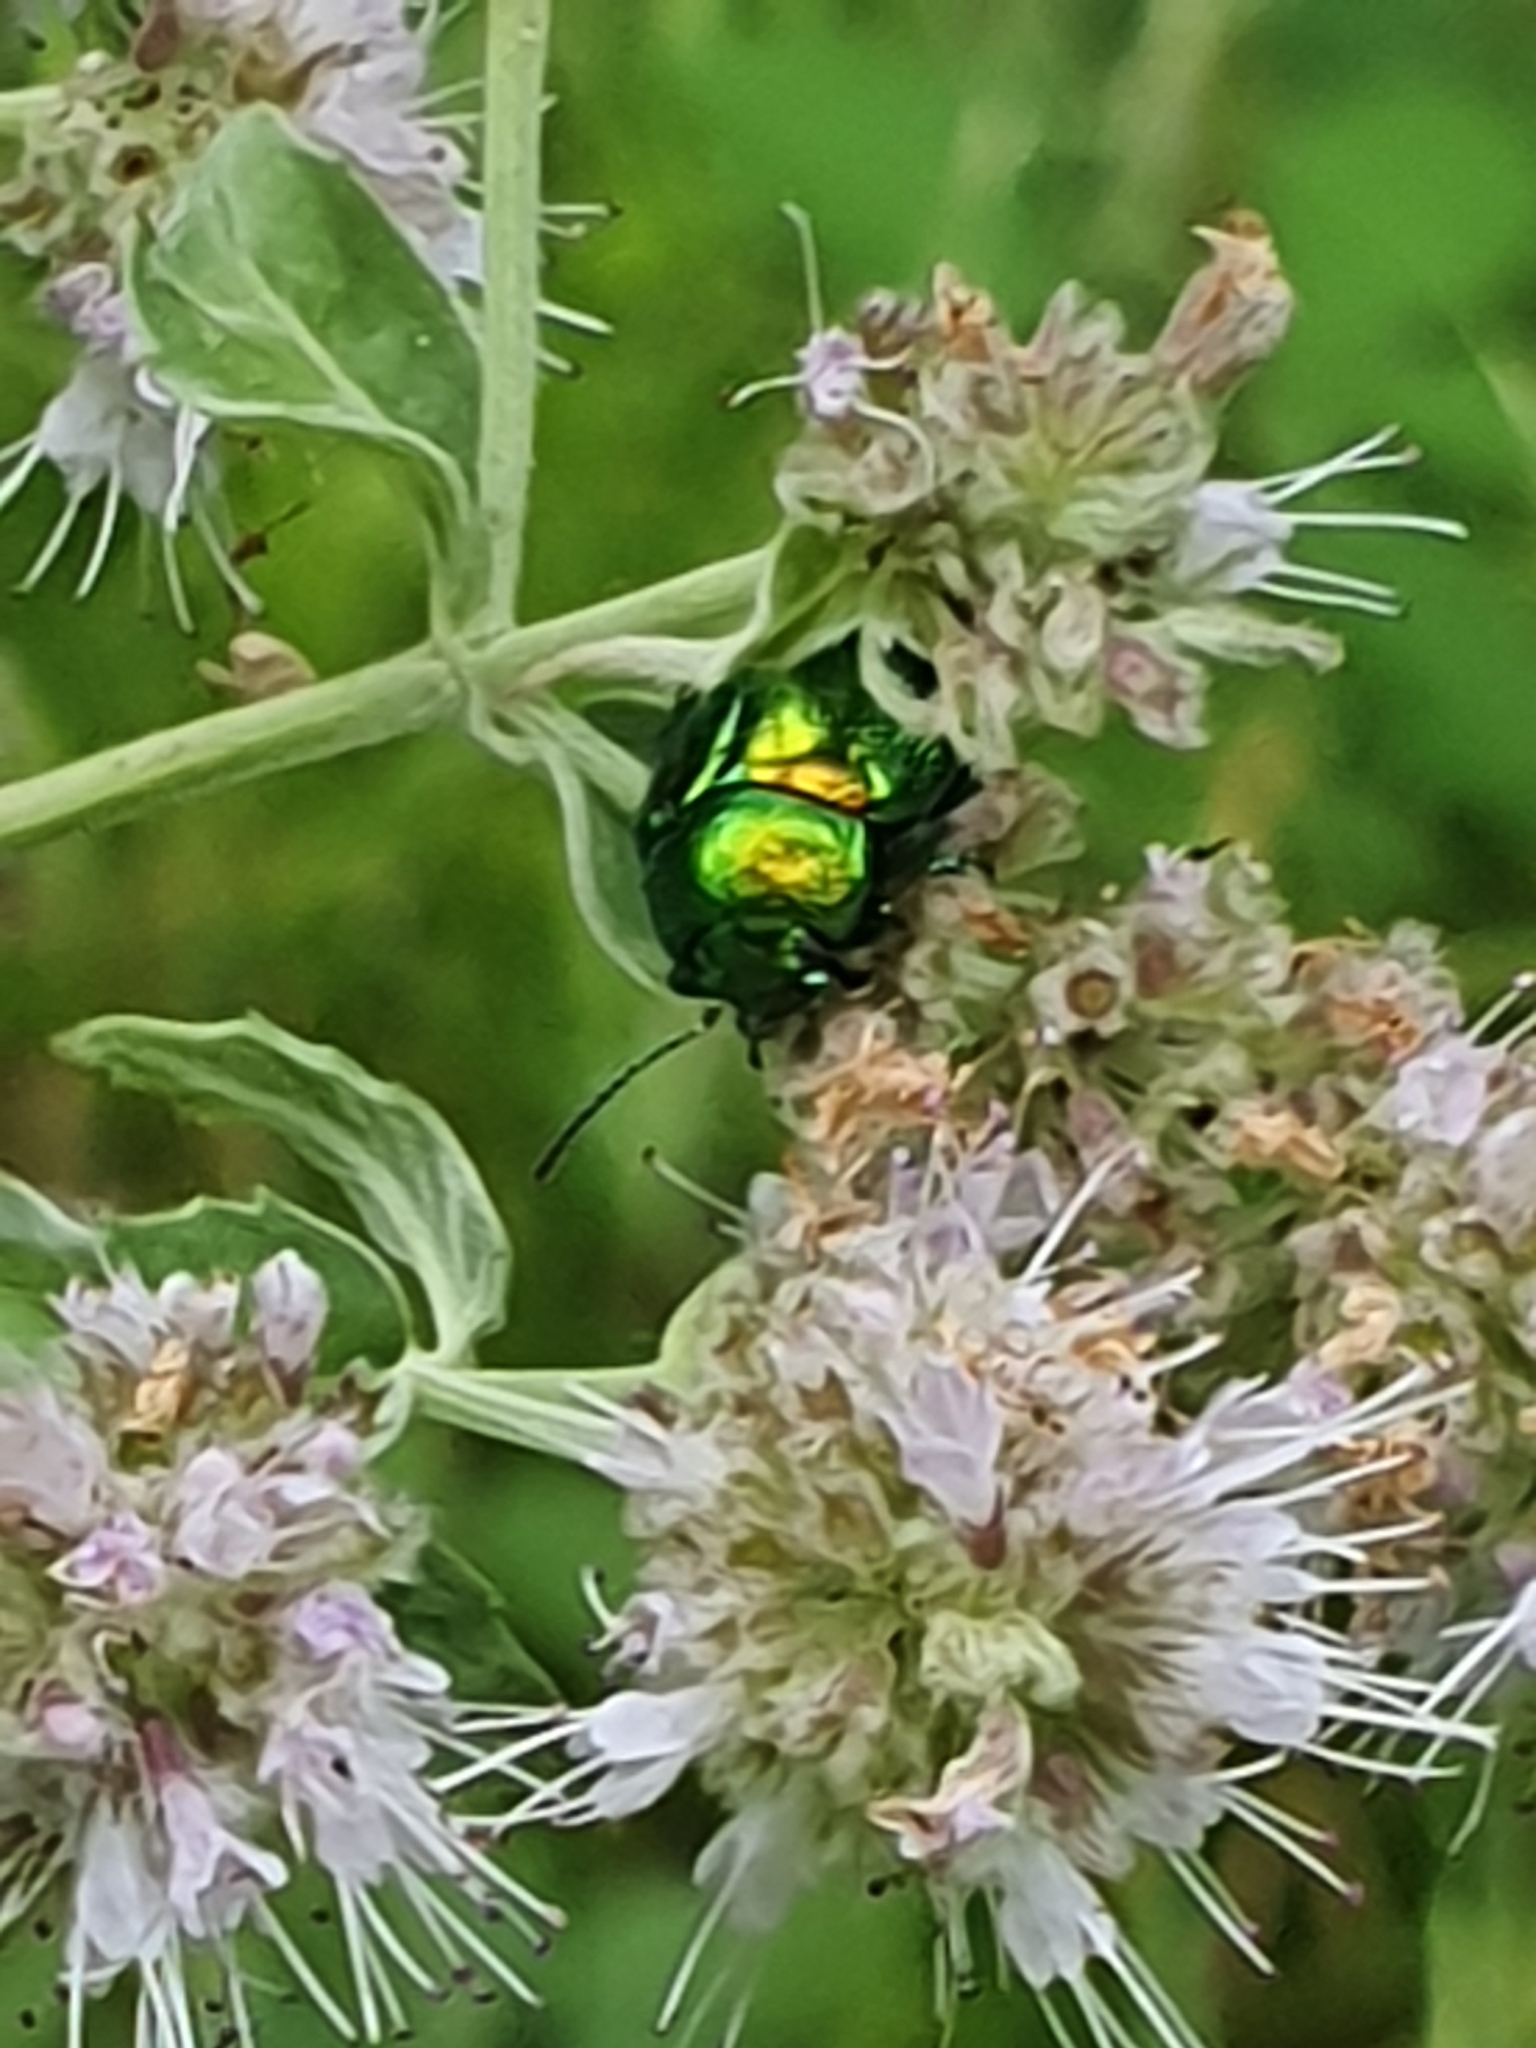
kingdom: Animalia
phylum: Arthropoda
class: Insecta
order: Coleoptera
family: Chrysomelidae
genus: Chrysolina
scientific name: Chrysolina herbacea
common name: Mint leaf beatle
